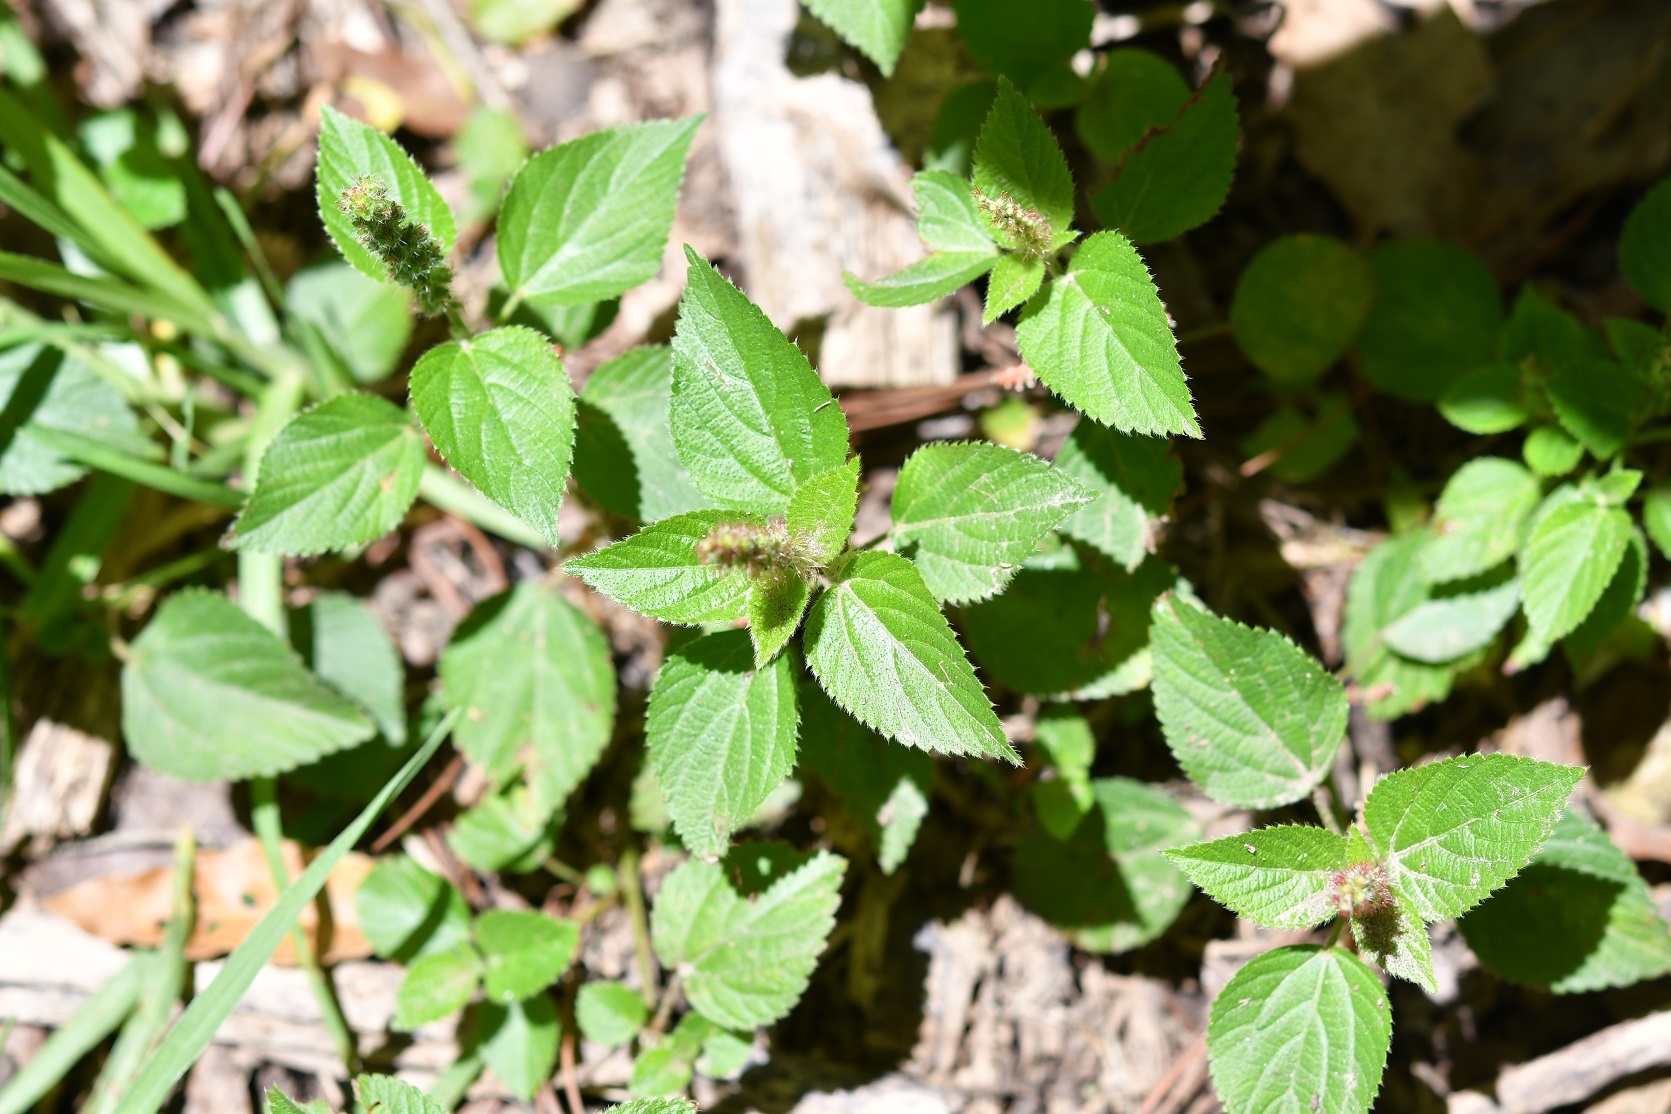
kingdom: Plantae
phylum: Tracheophyta
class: Magnoliopsida
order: Malpighiales
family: Euphorbiaceae
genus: Acalypha
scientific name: Acalypha phleoides
